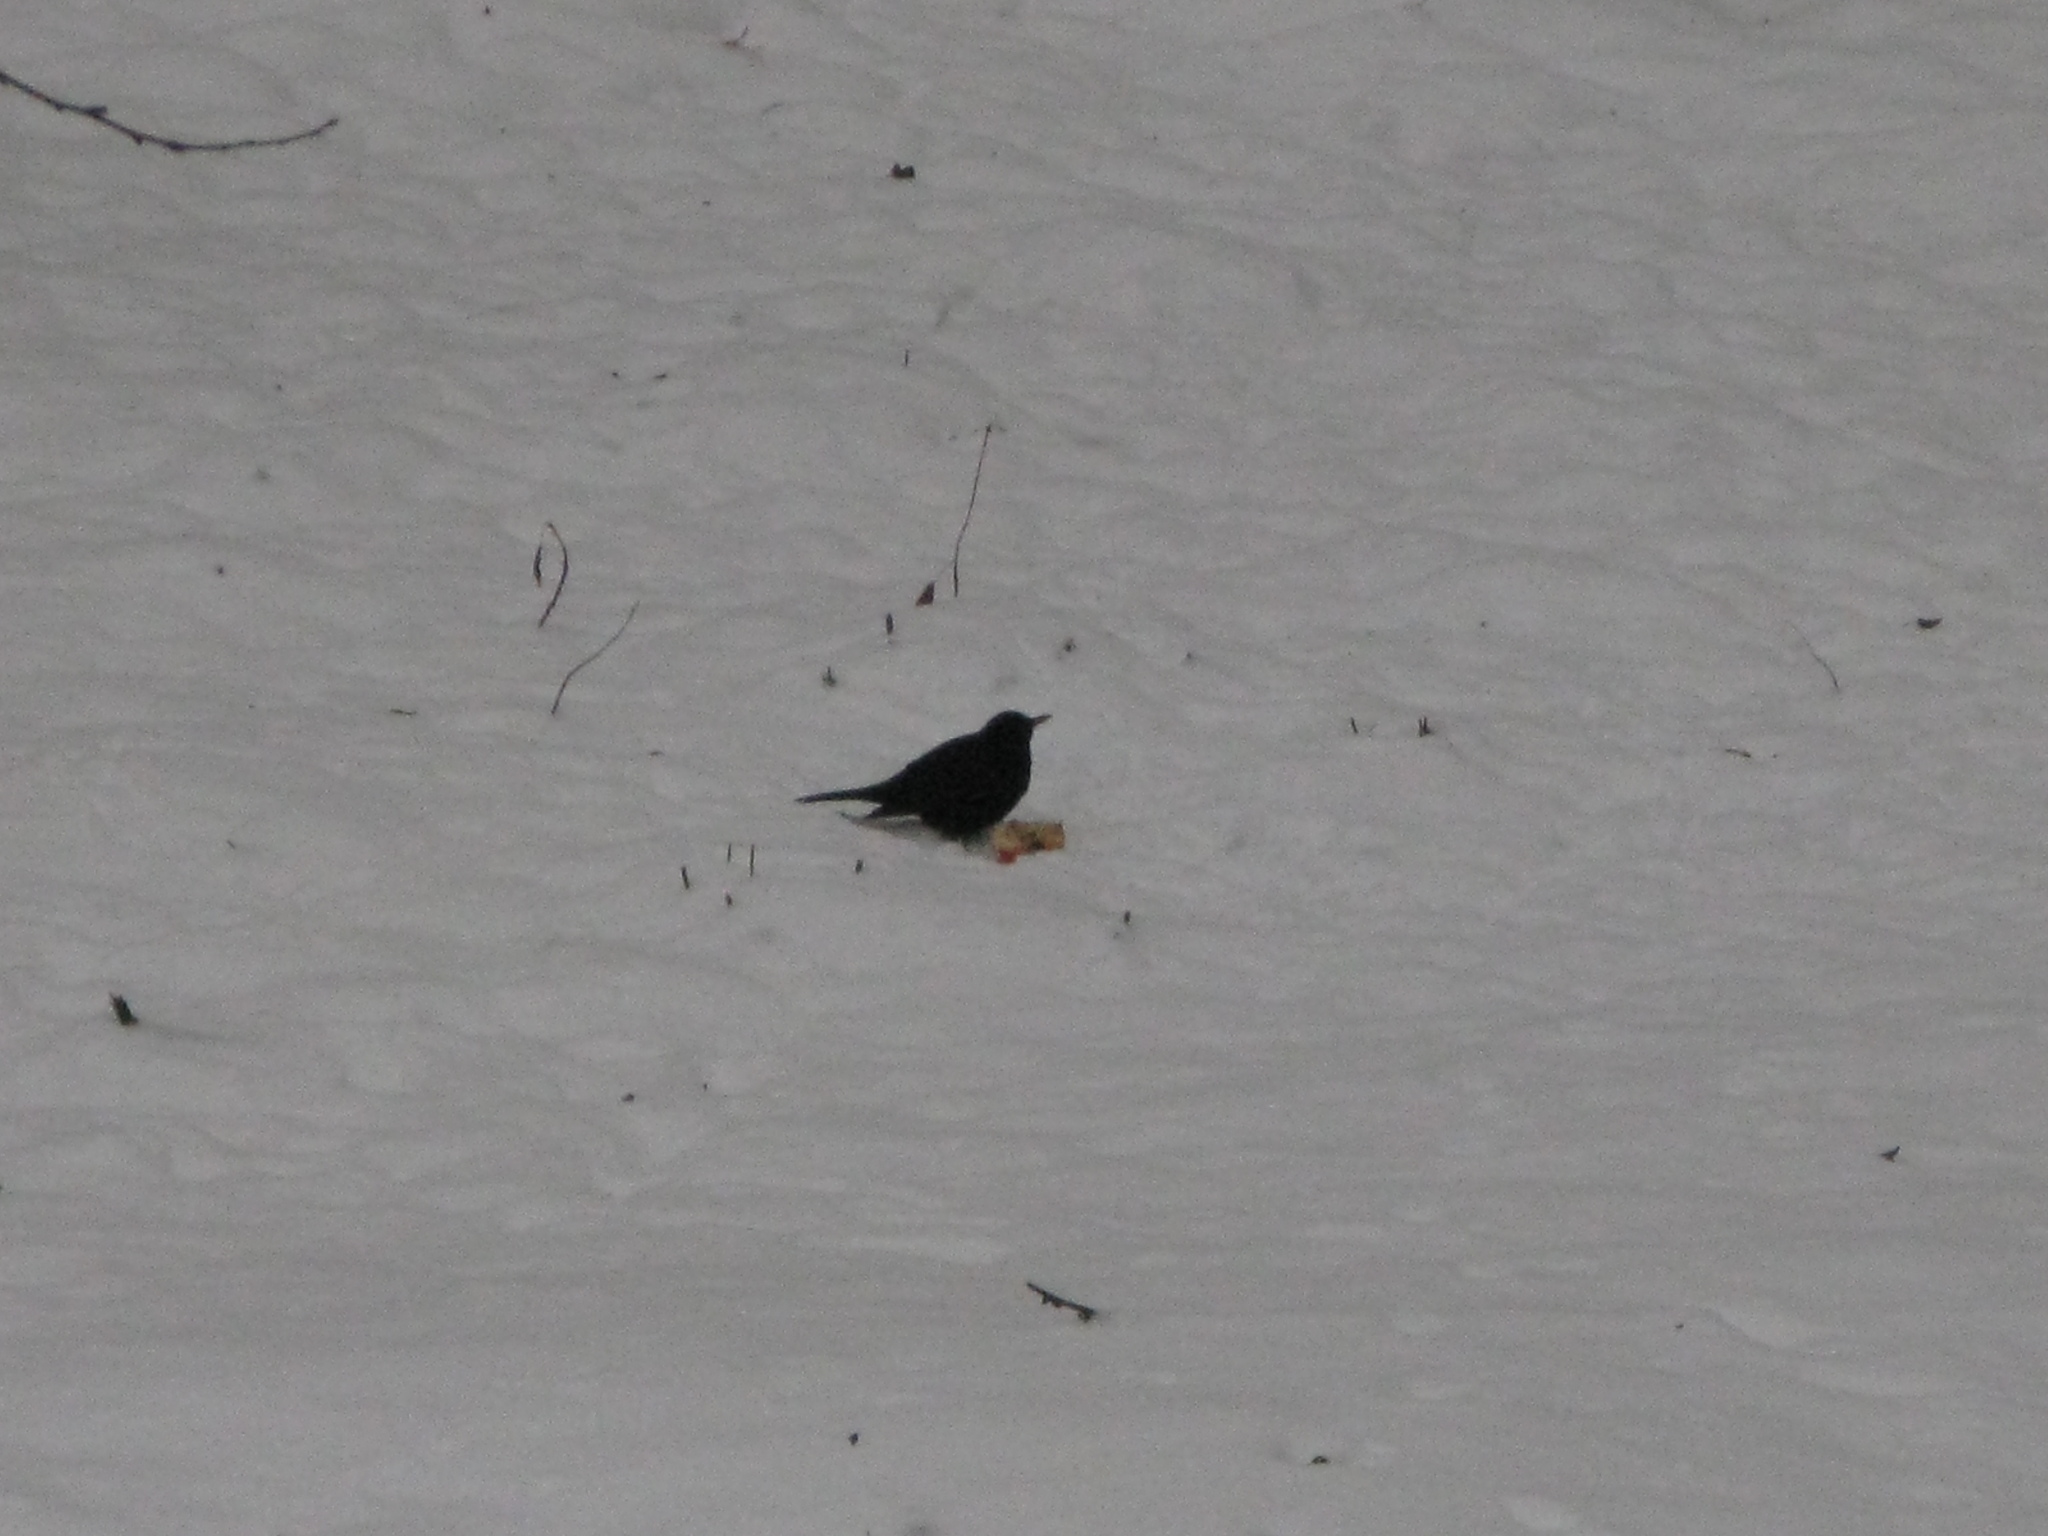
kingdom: Animalia
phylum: Chordata
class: Aves
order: Passeriformes
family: Turdidae
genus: Turdus
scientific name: Turdus merula
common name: Common blackbird
